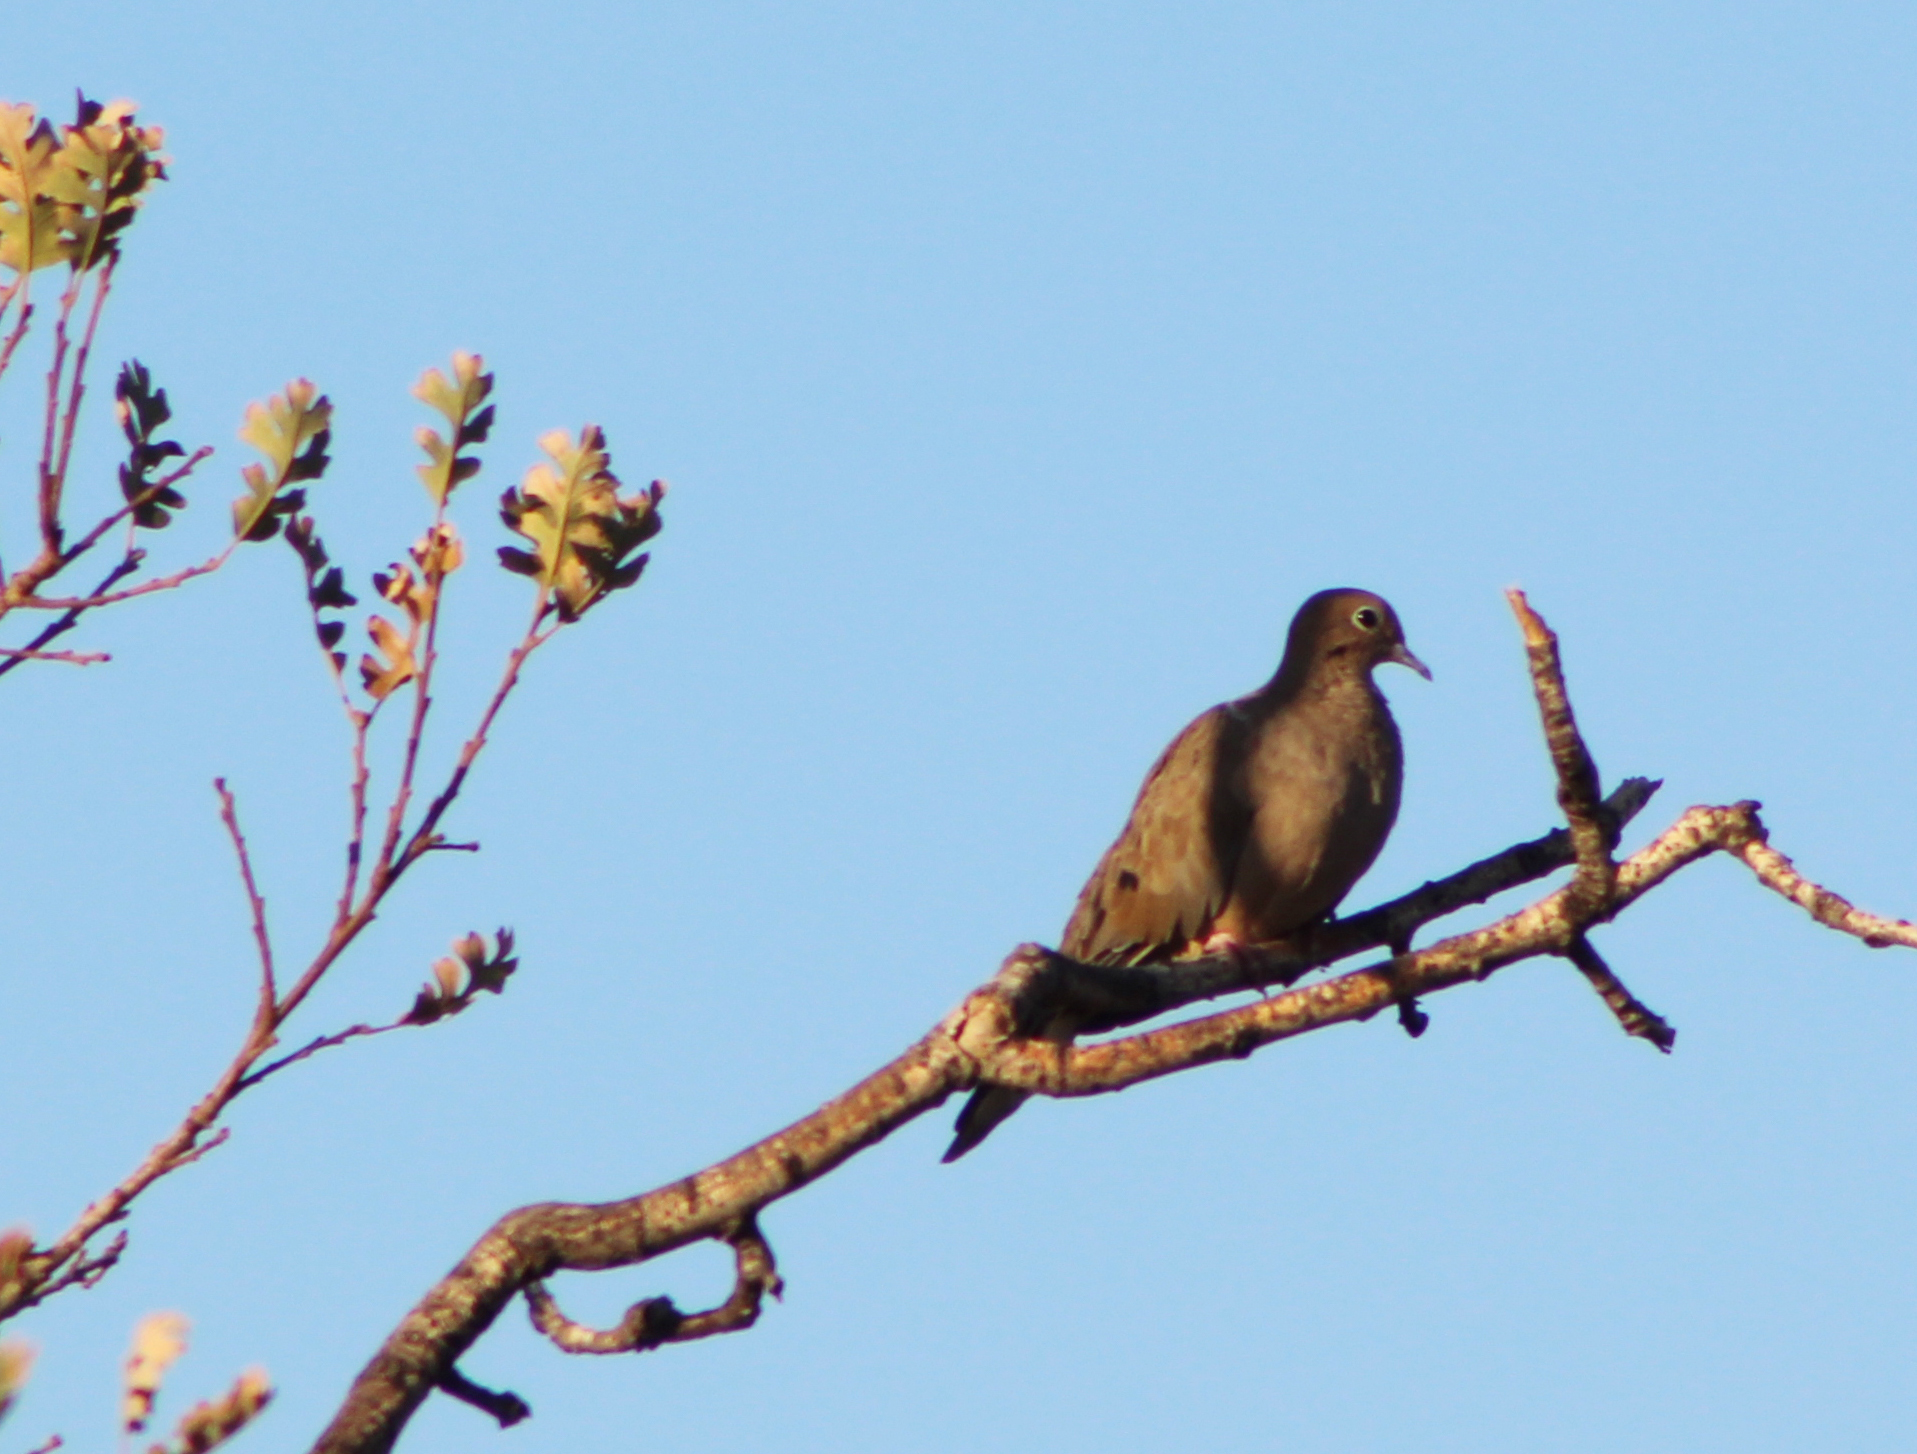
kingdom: Animalia
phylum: Chordata
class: Aves
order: Columbiformes
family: Columbidae
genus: Zenaida
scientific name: Zenaida macroura
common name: Mourning dove
